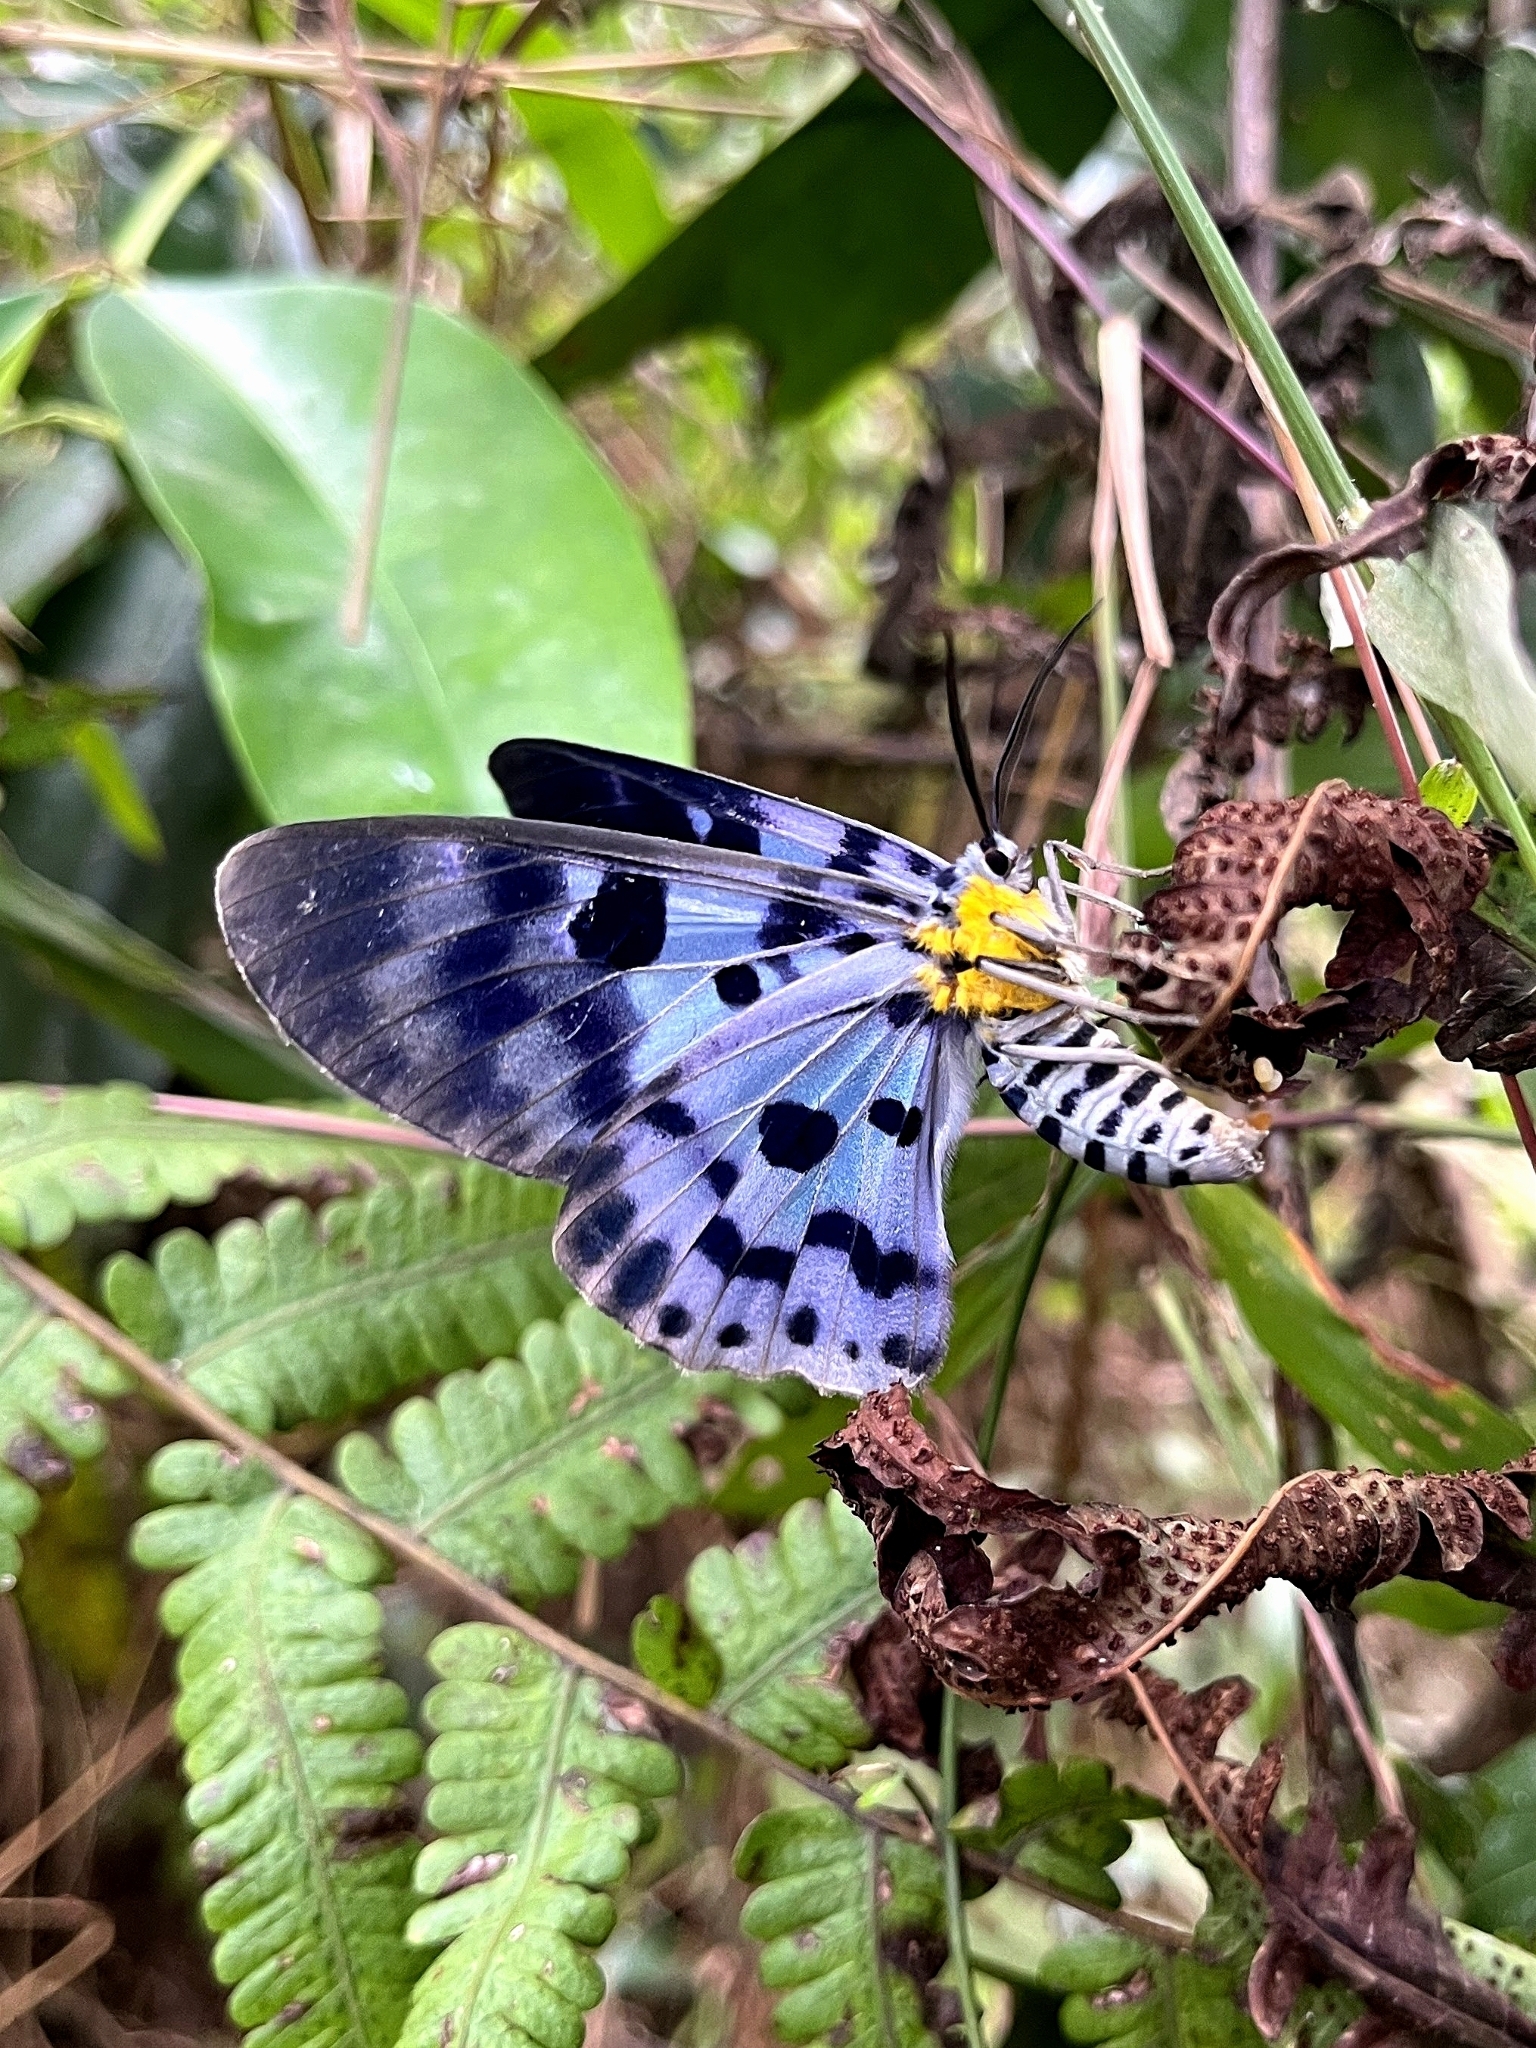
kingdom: Animalia
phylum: Arthropoda
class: Insecta
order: Lepidoptera
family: Geometridae
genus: Dysphania
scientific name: Dysphania percota
